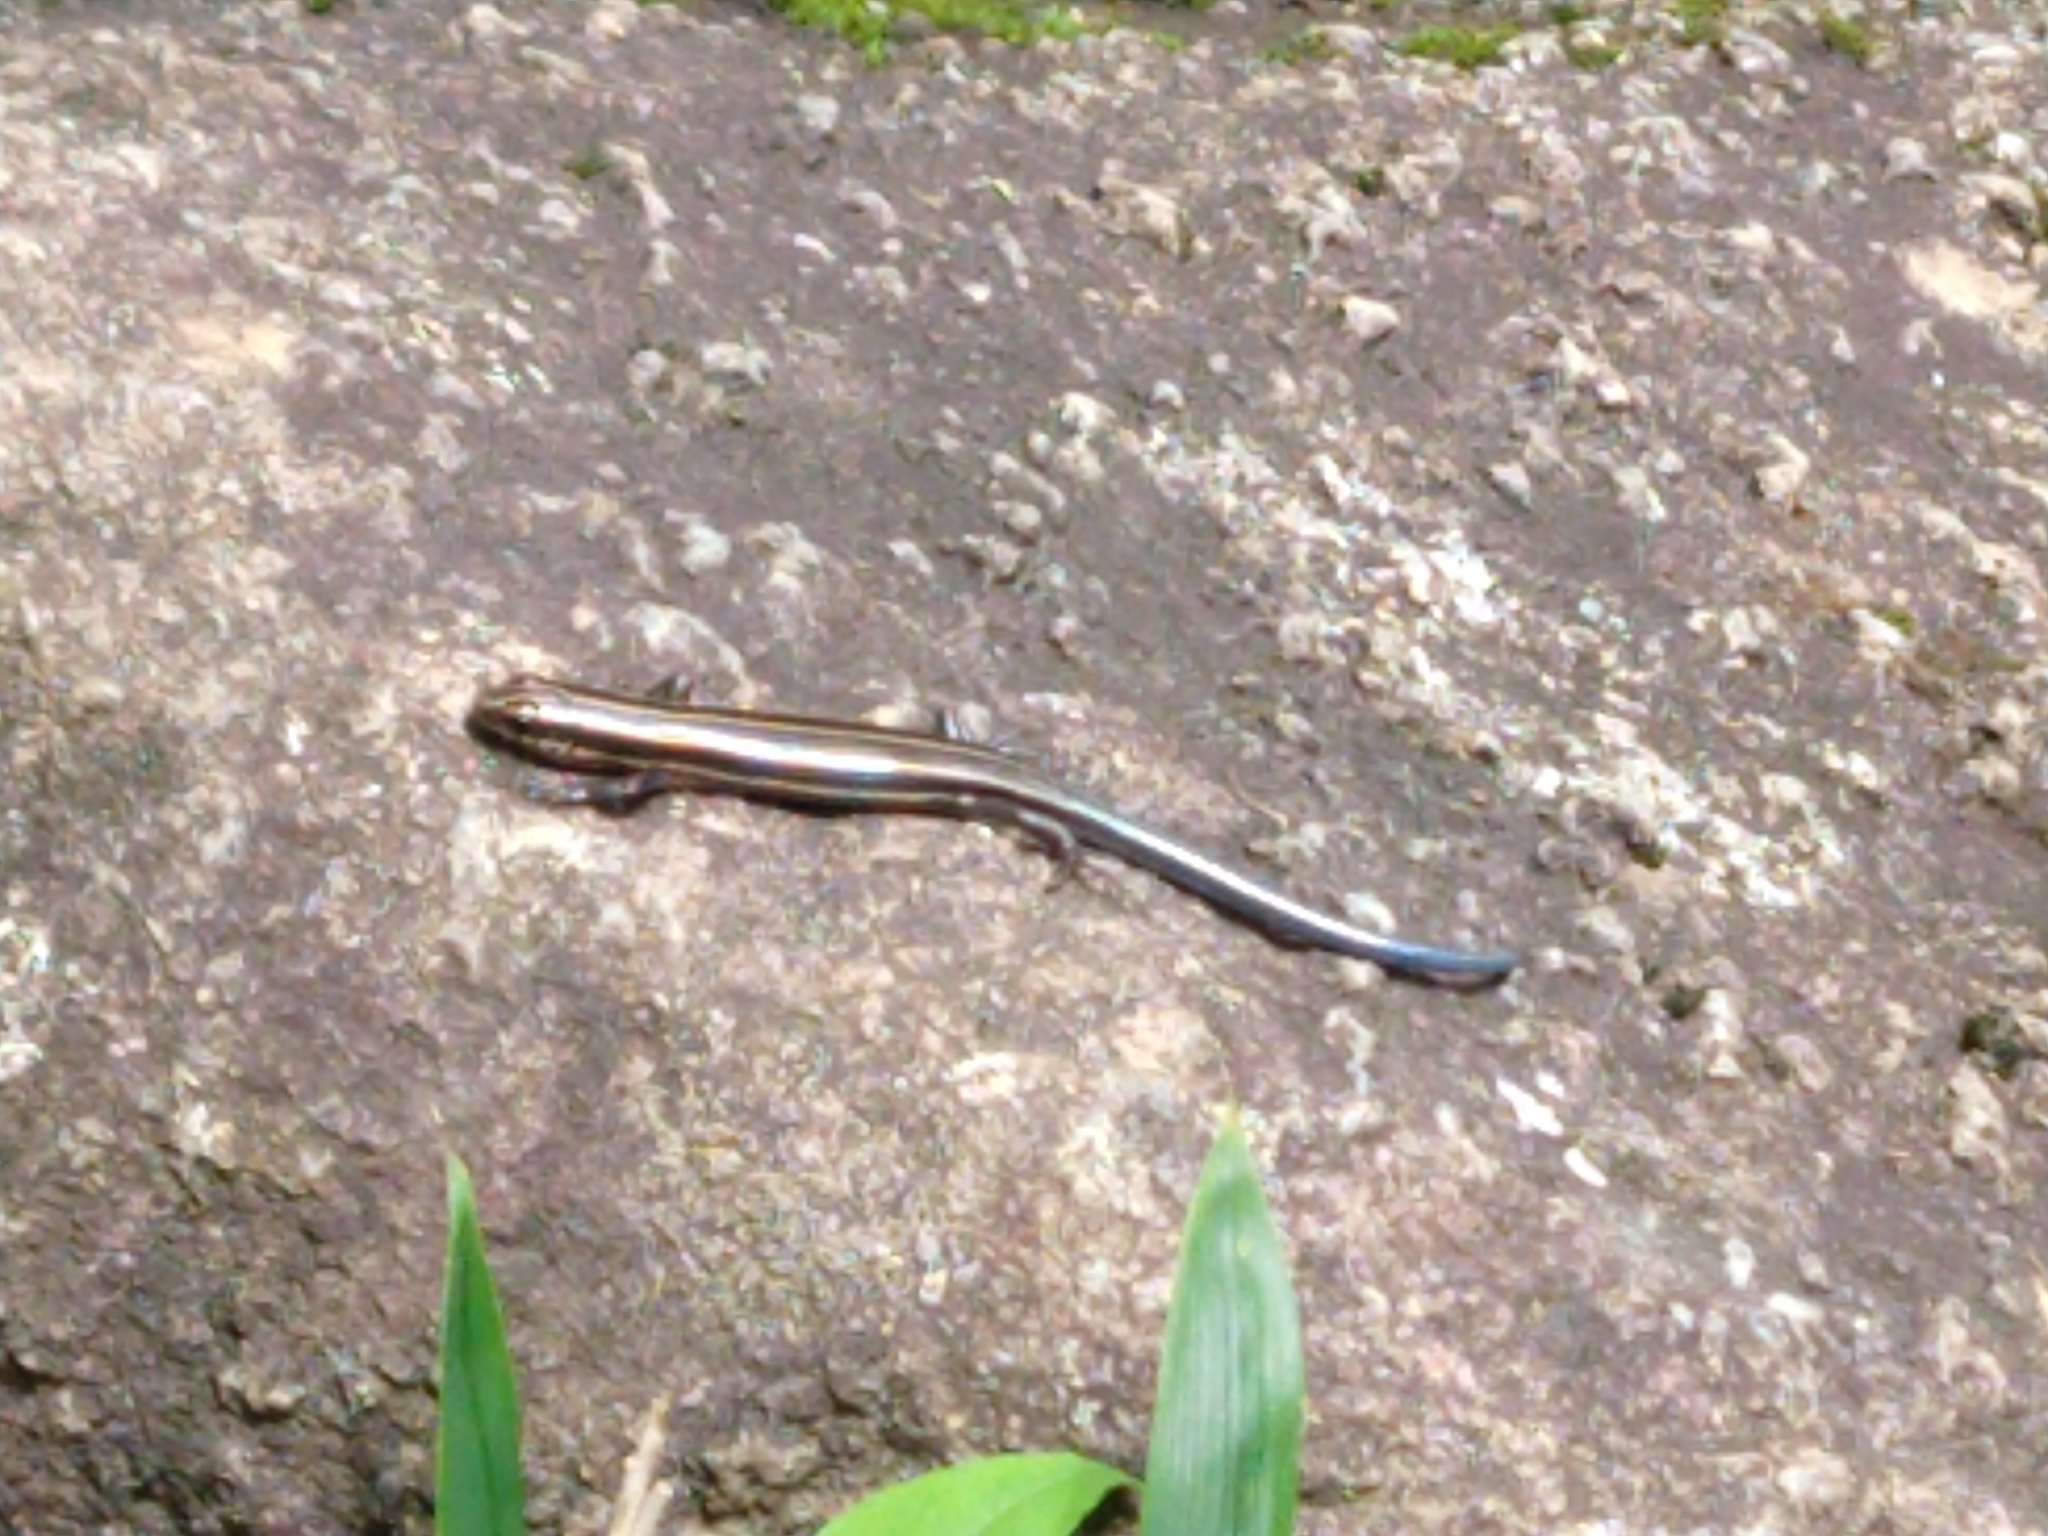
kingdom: Animalia
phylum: Chordata
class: Squamata
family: Scincidae
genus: Plestiodon
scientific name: Plestiodon finitimus
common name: Far eastern skink
